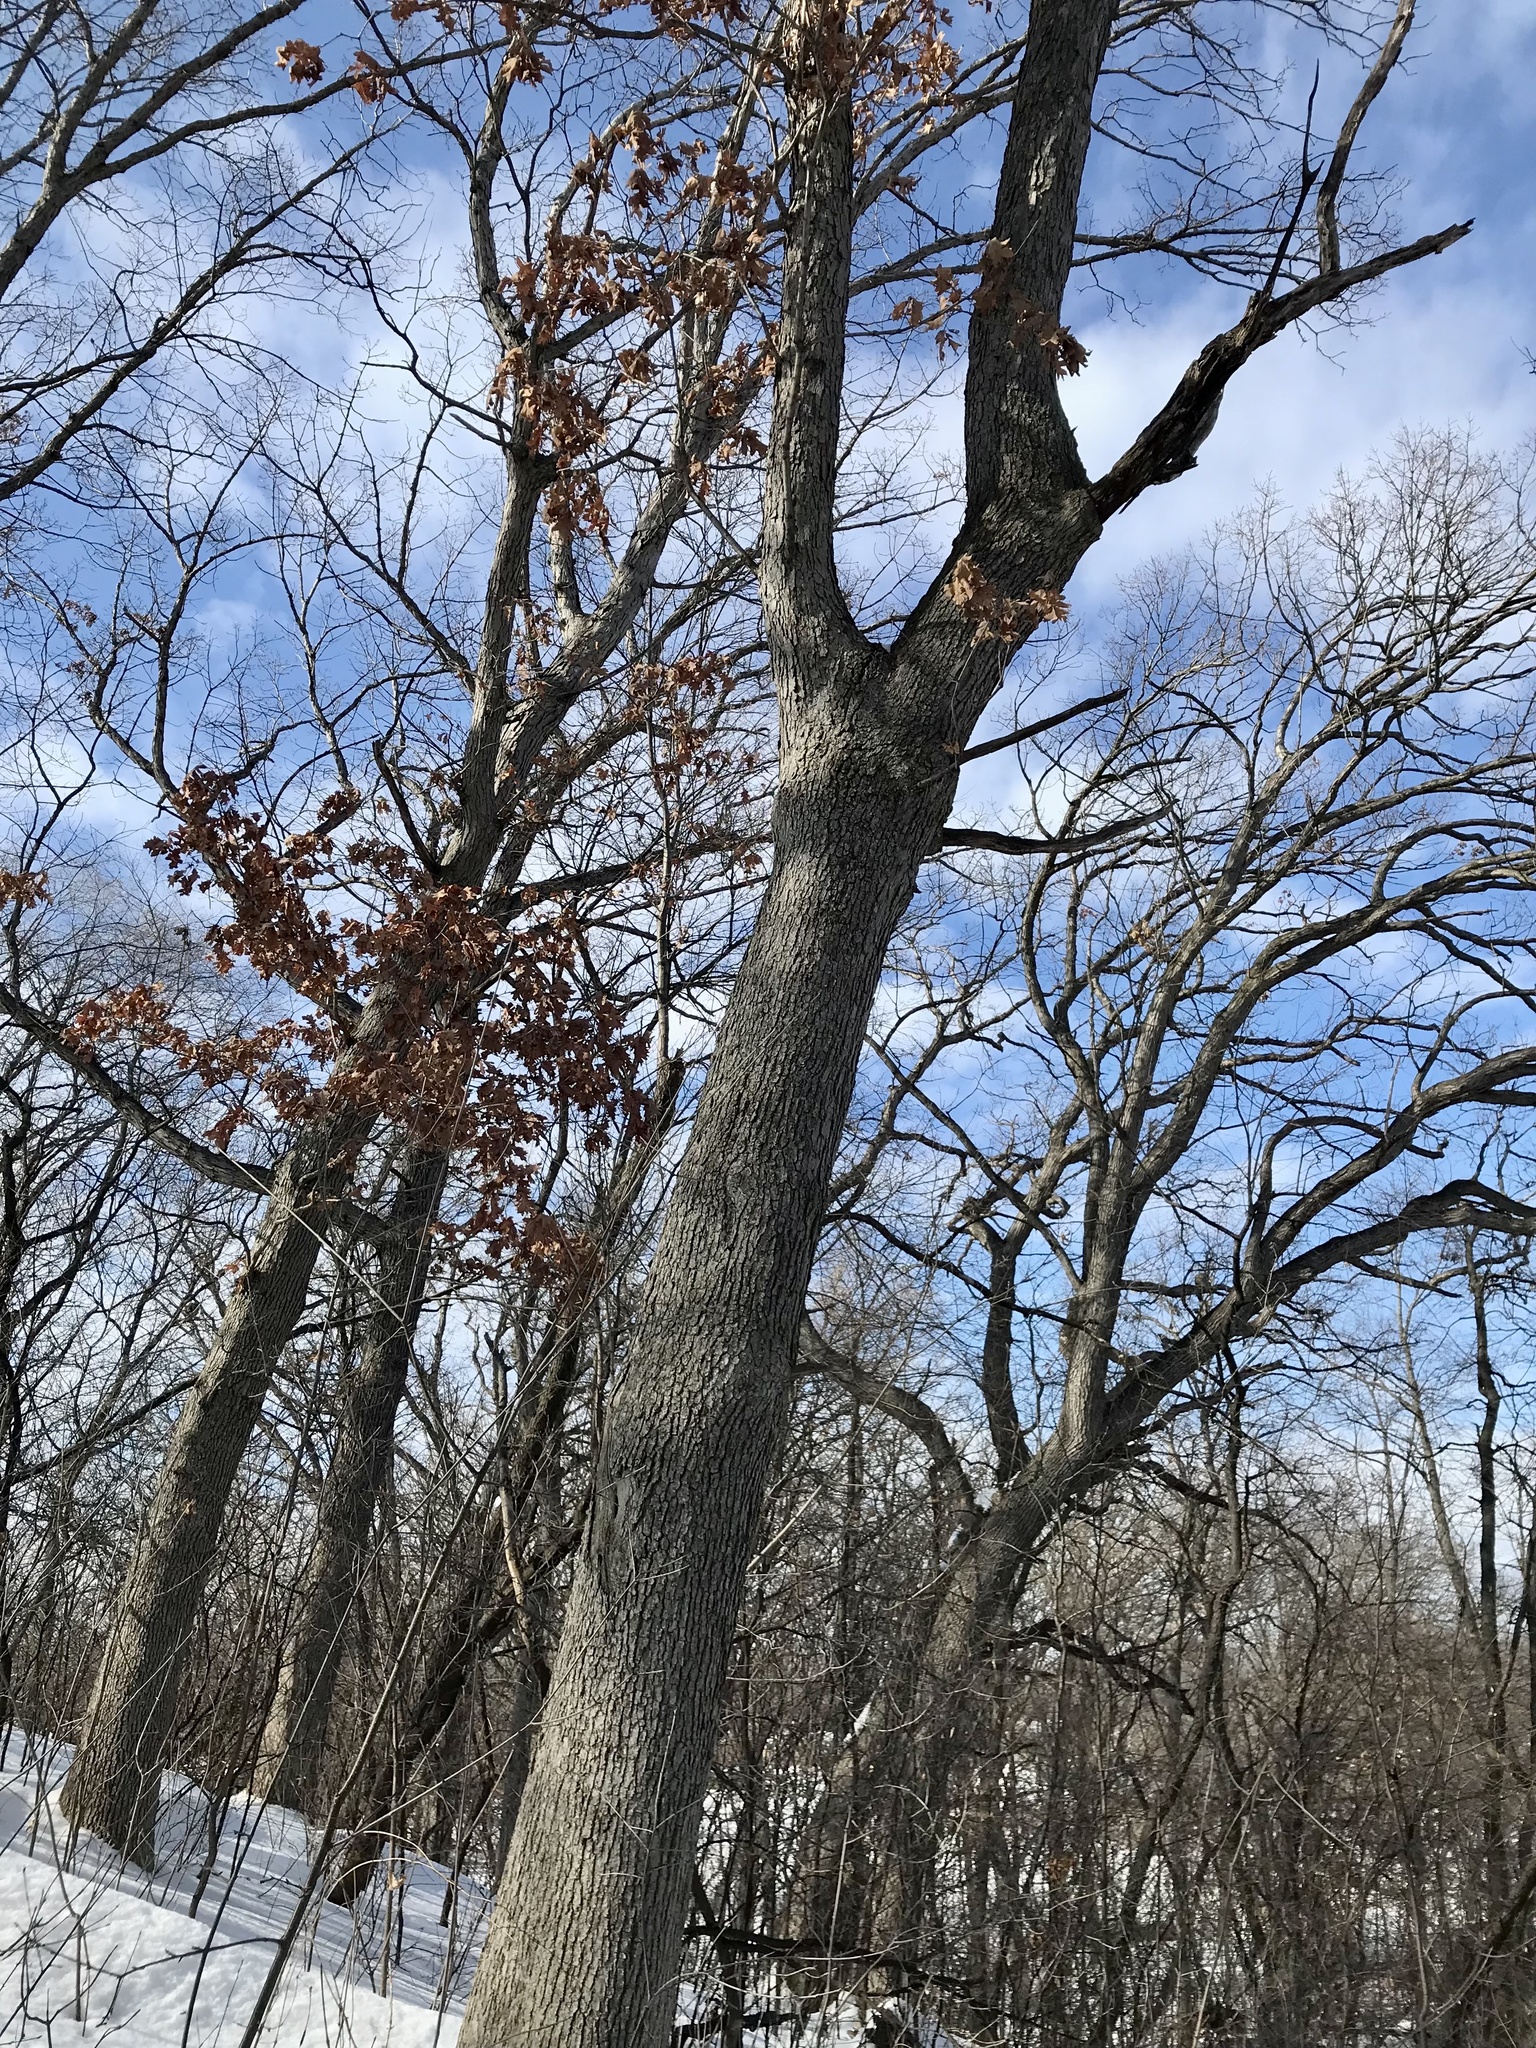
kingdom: Plantae
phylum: Tracheophyta
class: Magnoliopsida
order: Fagales
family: Fagaceae
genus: Quercus
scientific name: Quercus alba
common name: White oak
